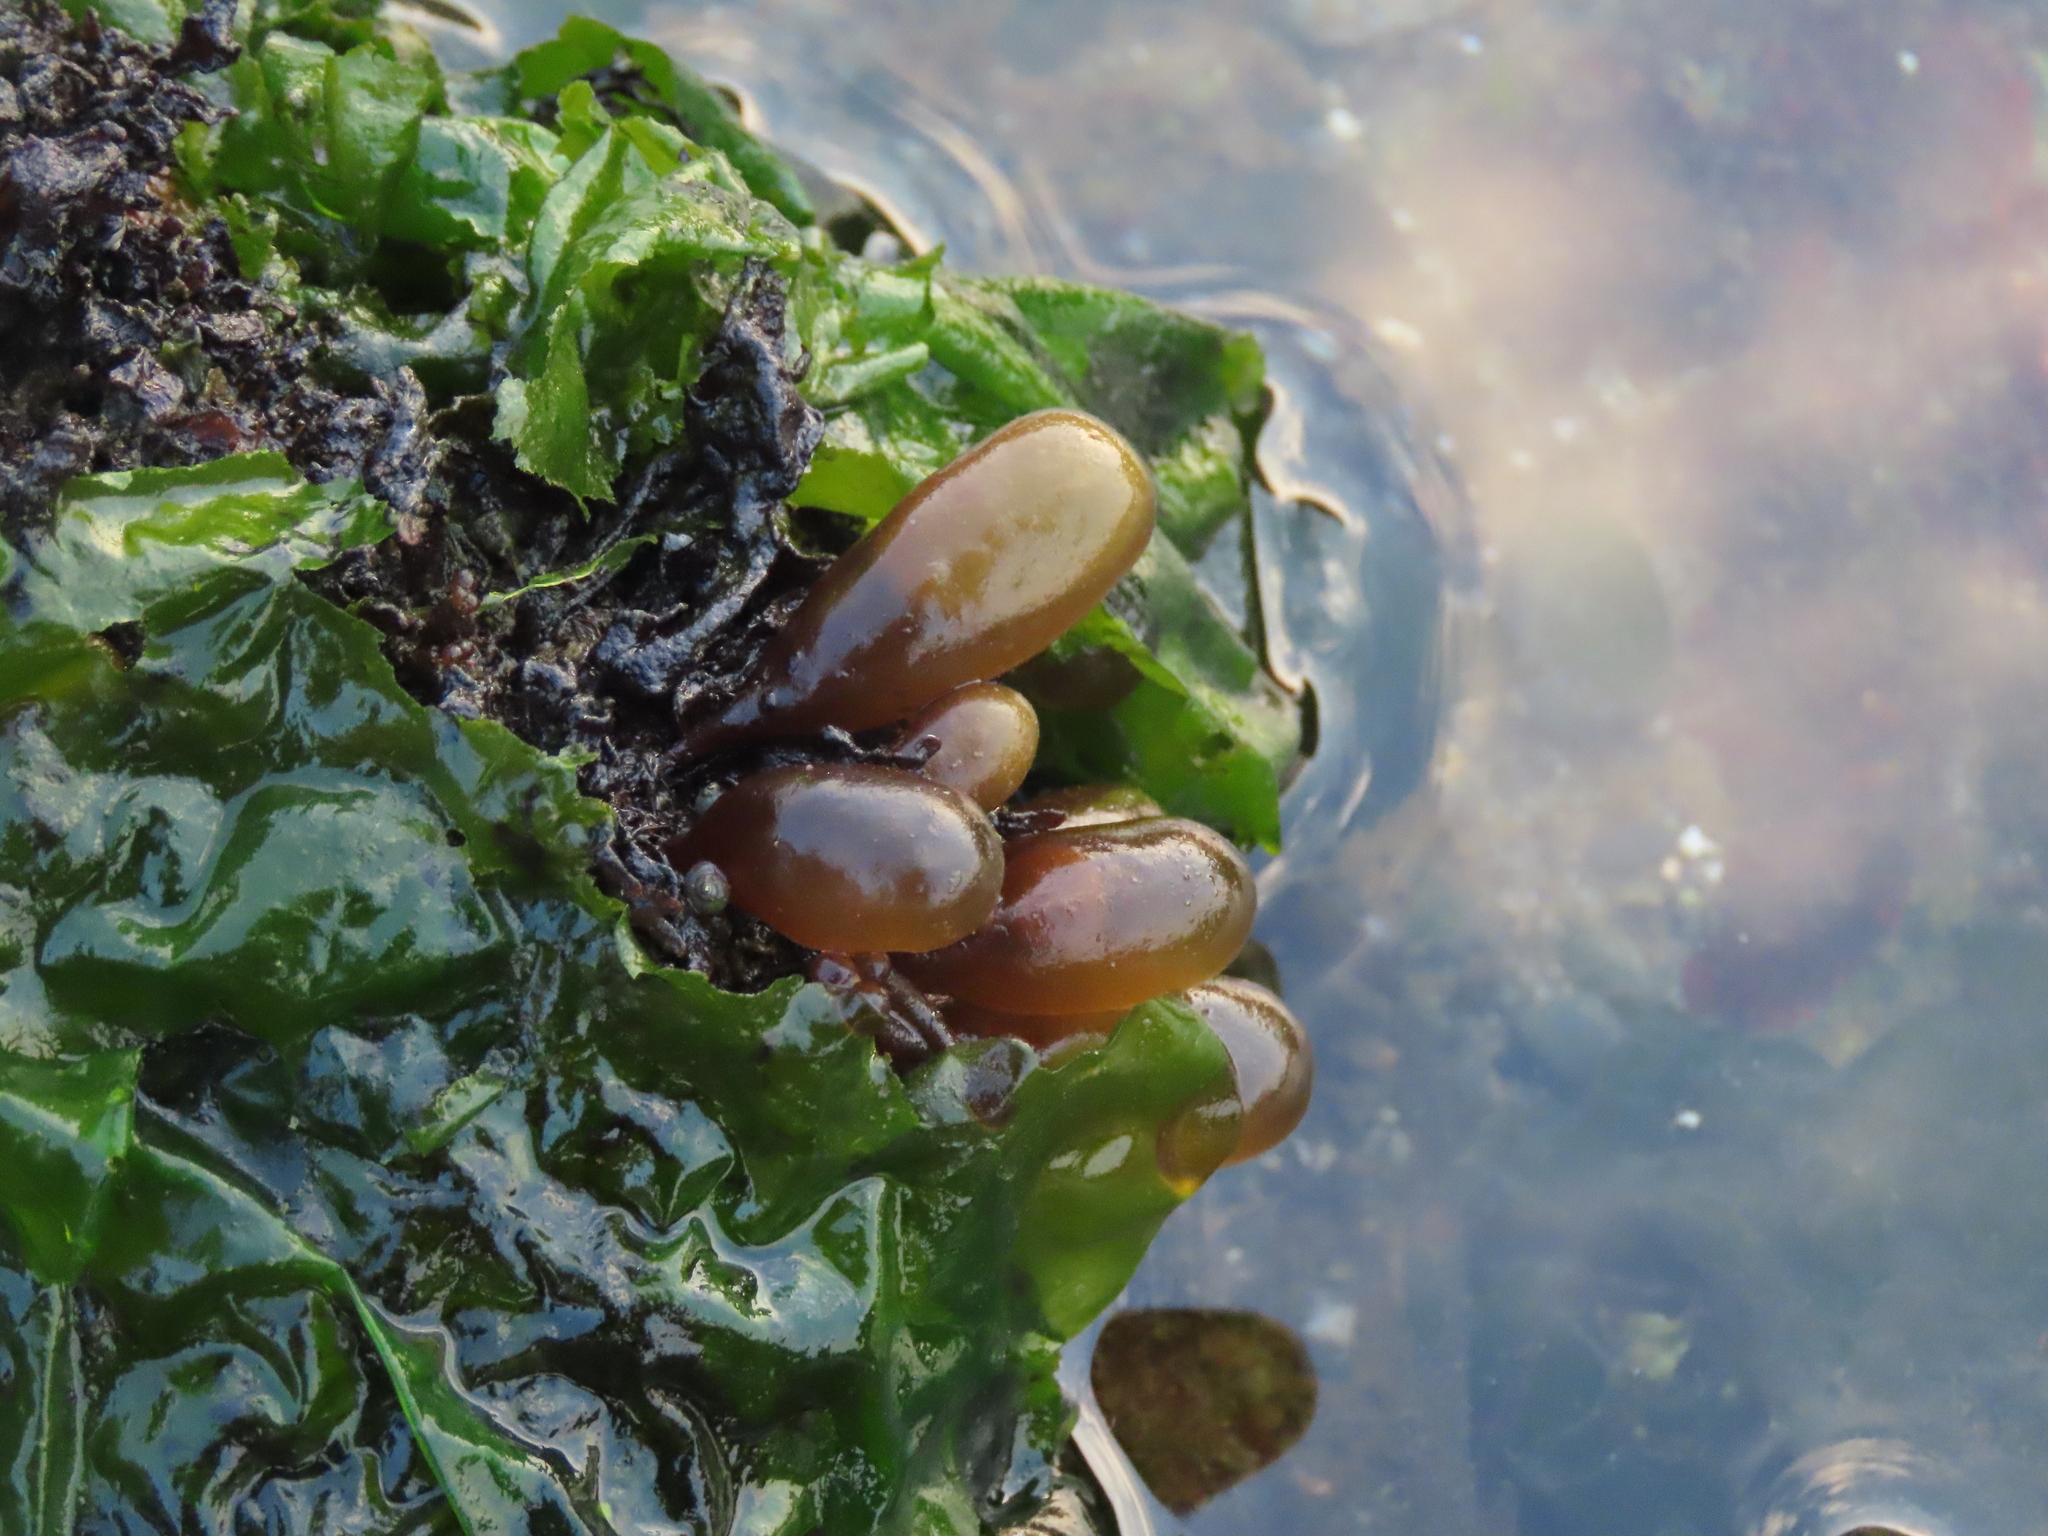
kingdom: Plantae
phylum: Rhodophyta
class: Florideophyceae
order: Palmariales
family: Palmariaceae
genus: Halosaccion
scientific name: Halosaccion glandiforme
